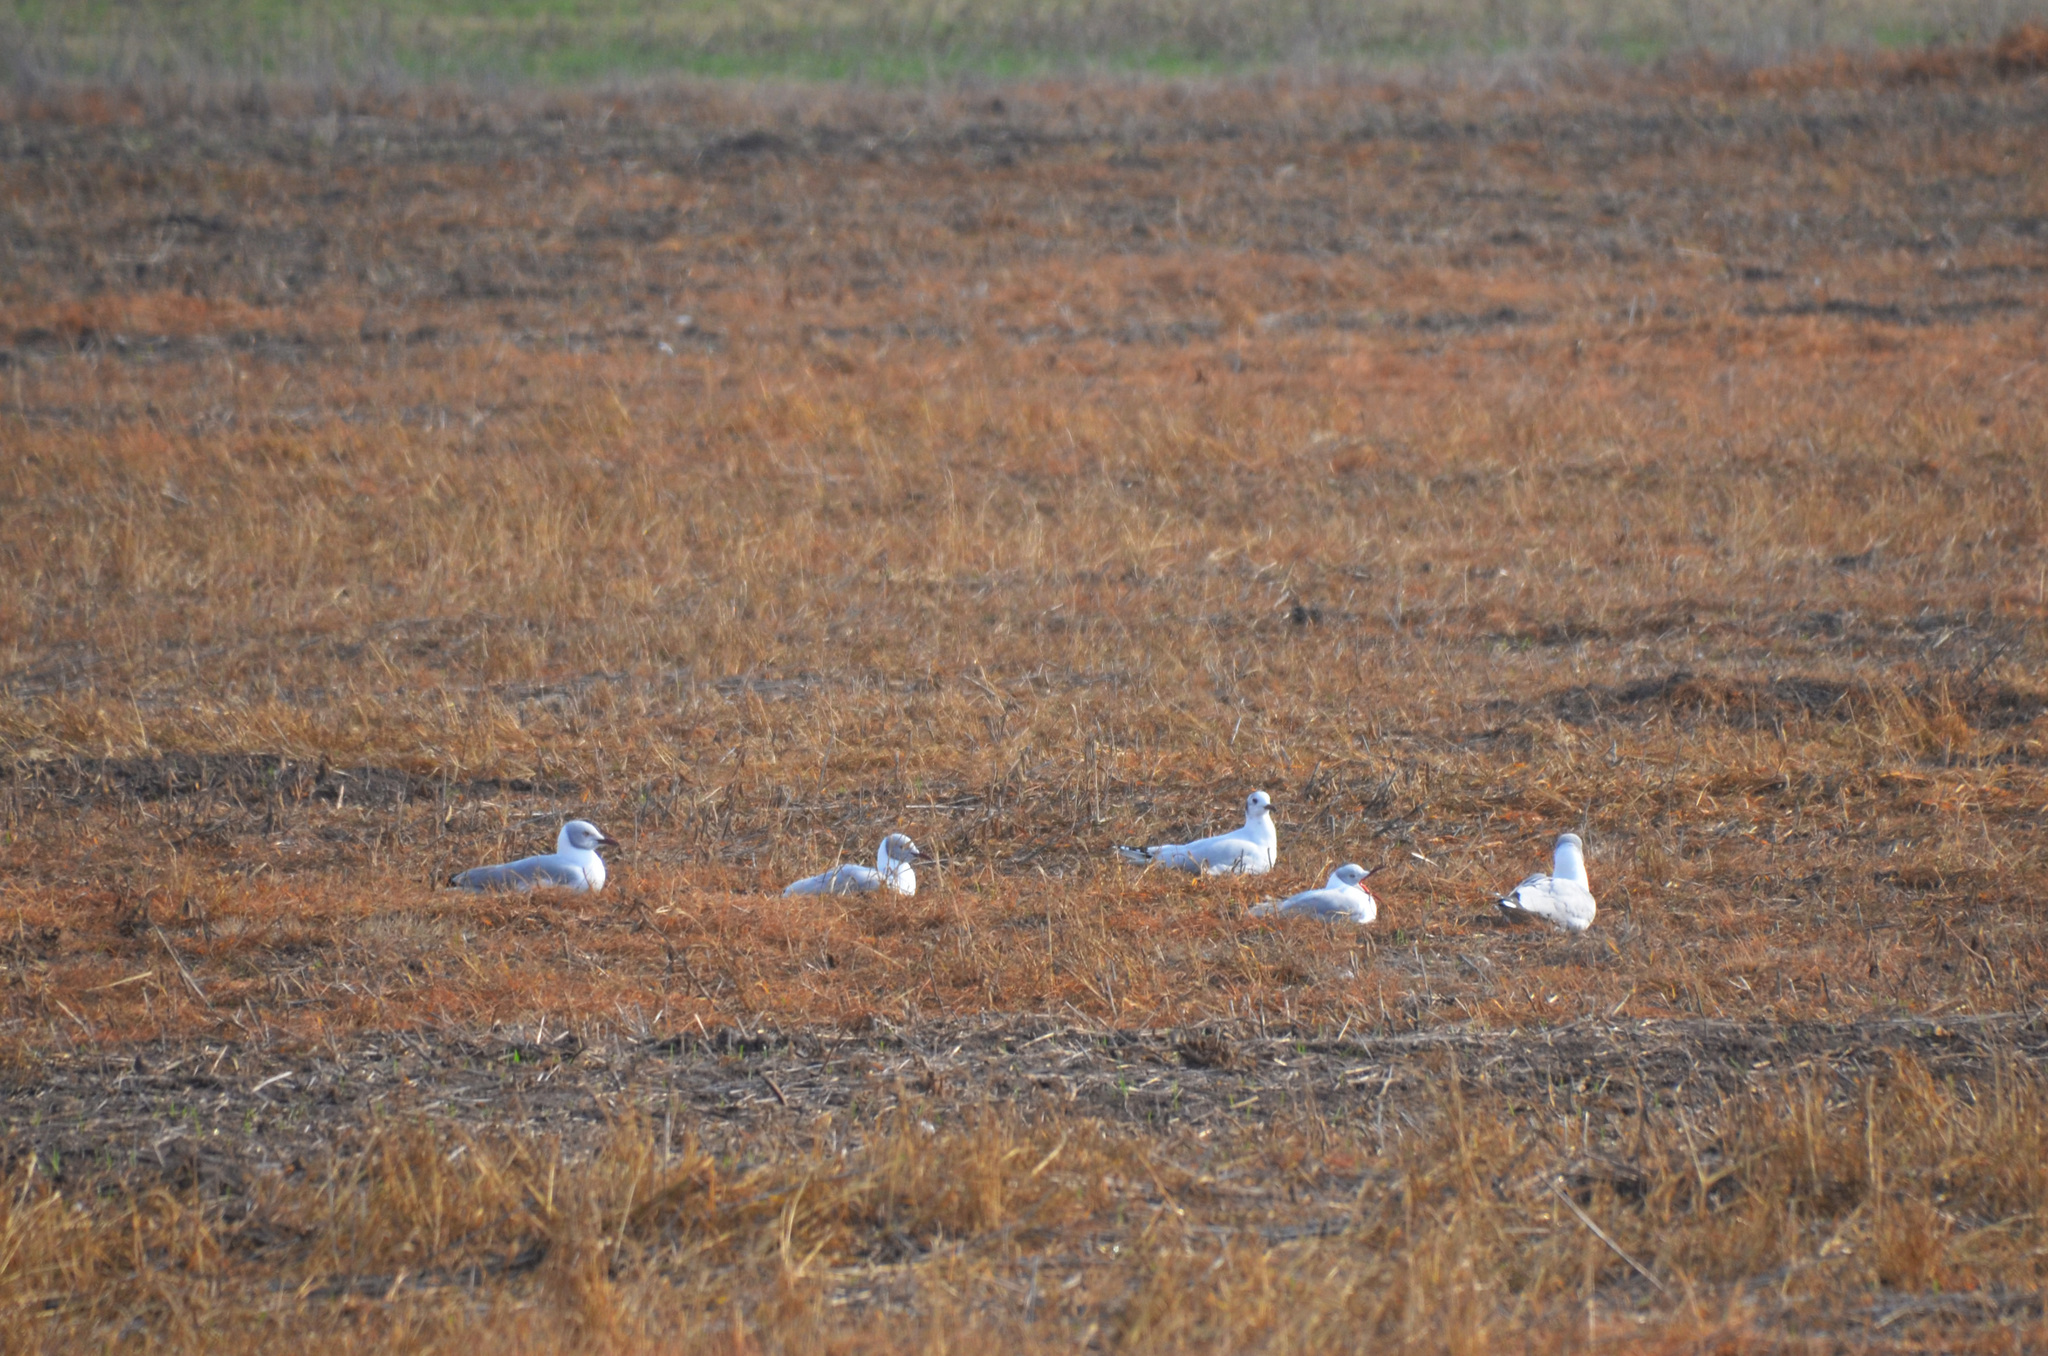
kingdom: Animalia
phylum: Chordata
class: Aves
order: Charadriiformes
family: Laridae
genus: Chroicocephalus
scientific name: Chroicocephalus cirrocephalus
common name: Grey-headed gull
